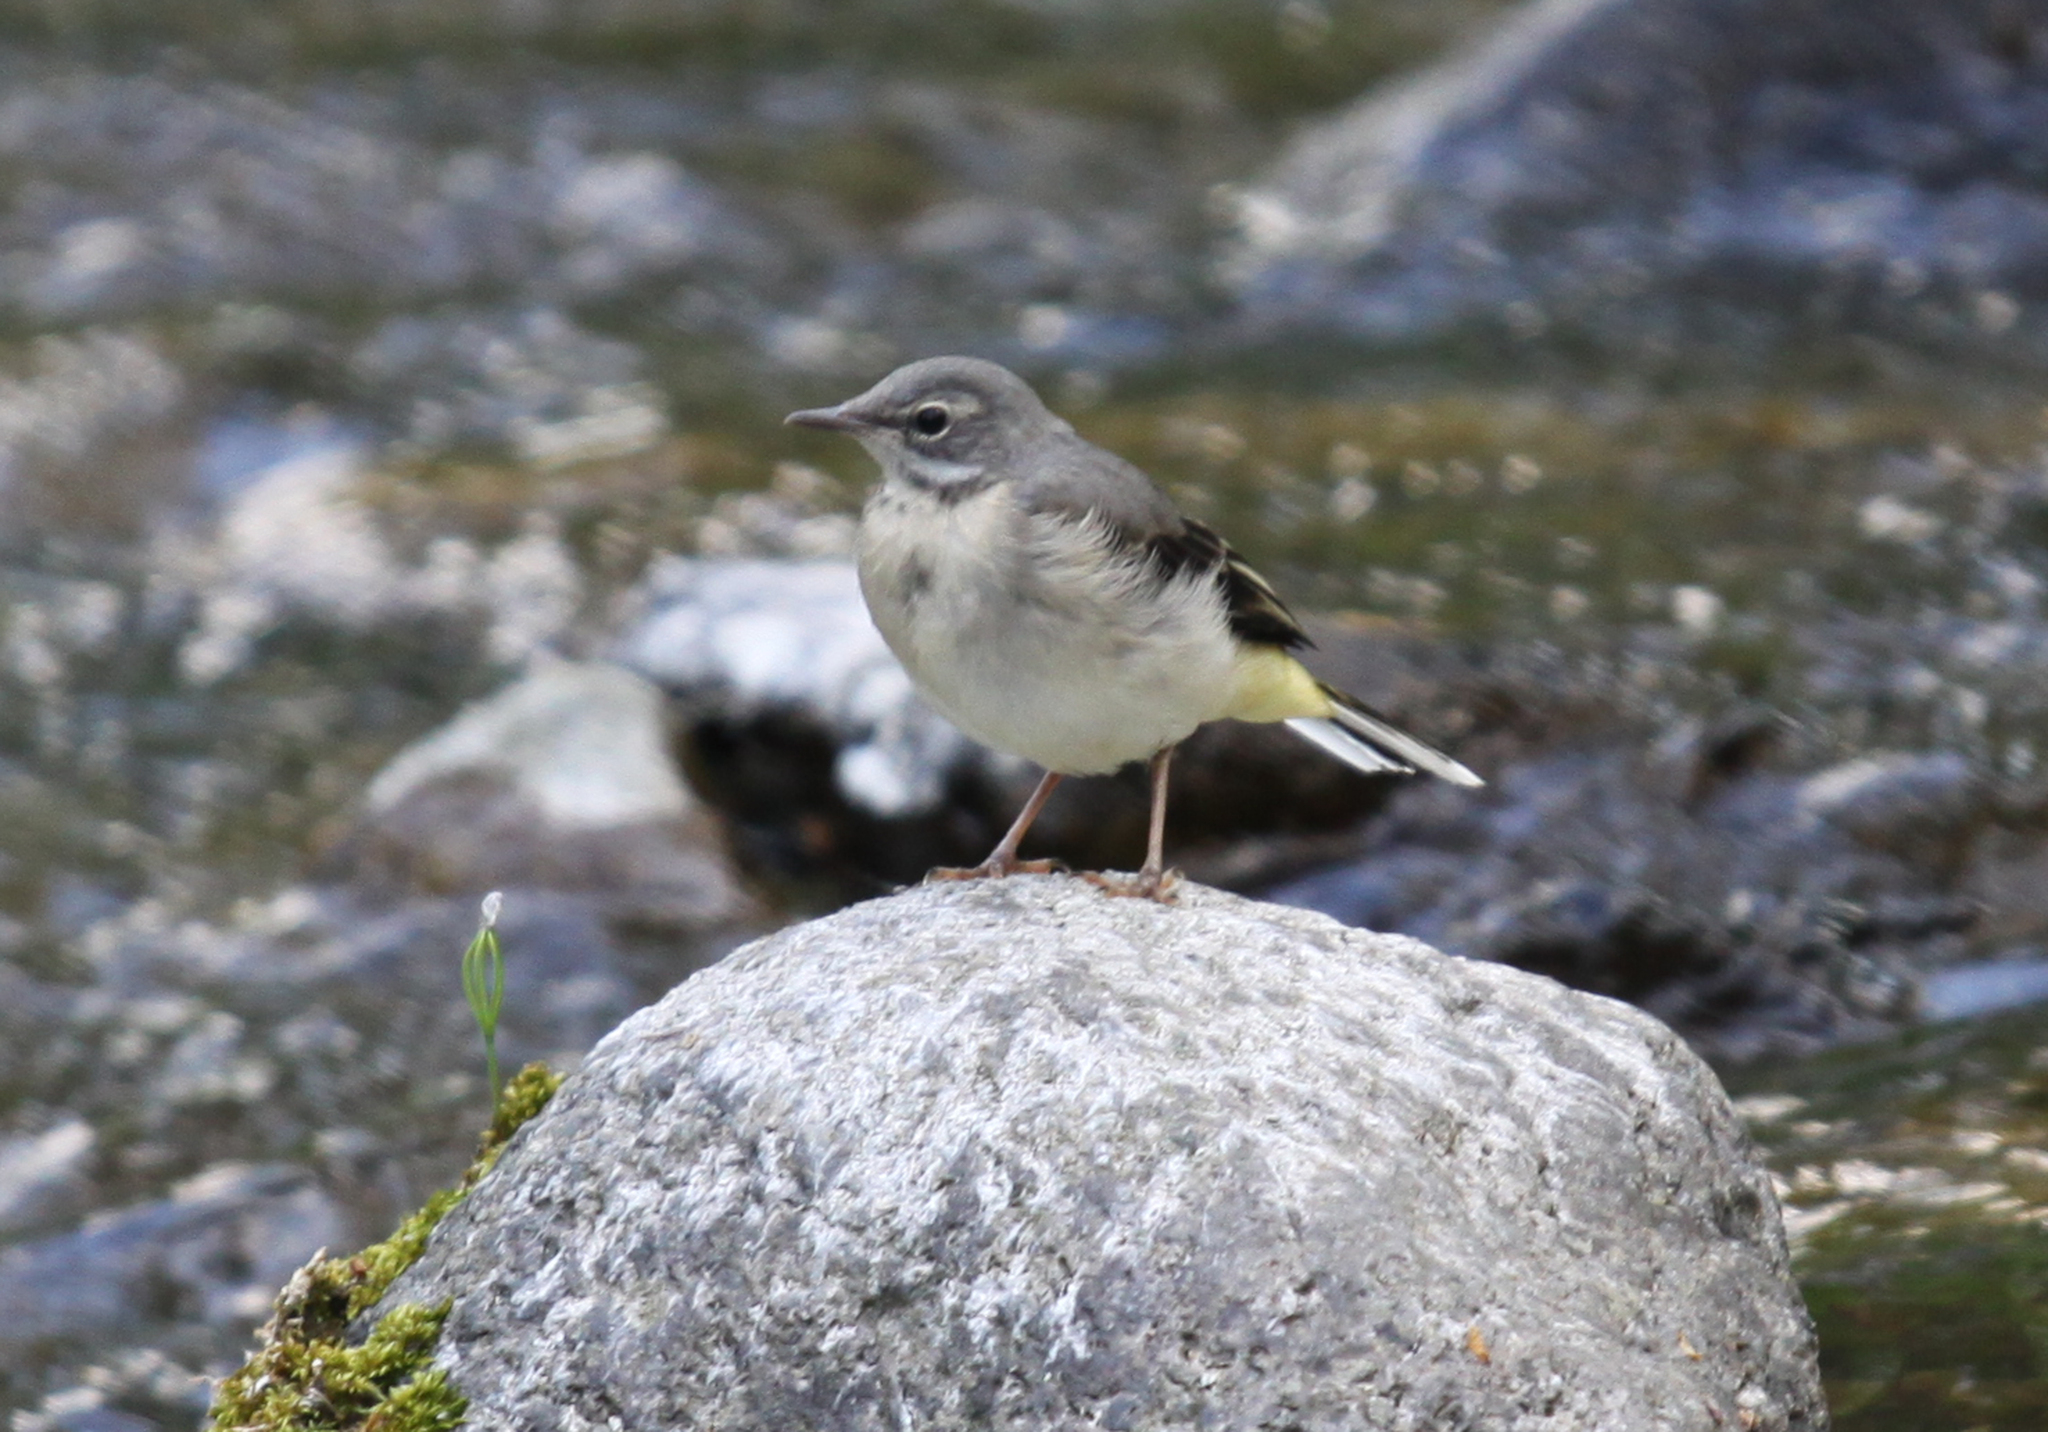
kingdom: Animalia
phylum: Chordata
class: Aves
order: Passeriformes
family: Motacillidae
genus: Motacilla
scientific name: Motacilla cinerea
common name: Grey wagtail
